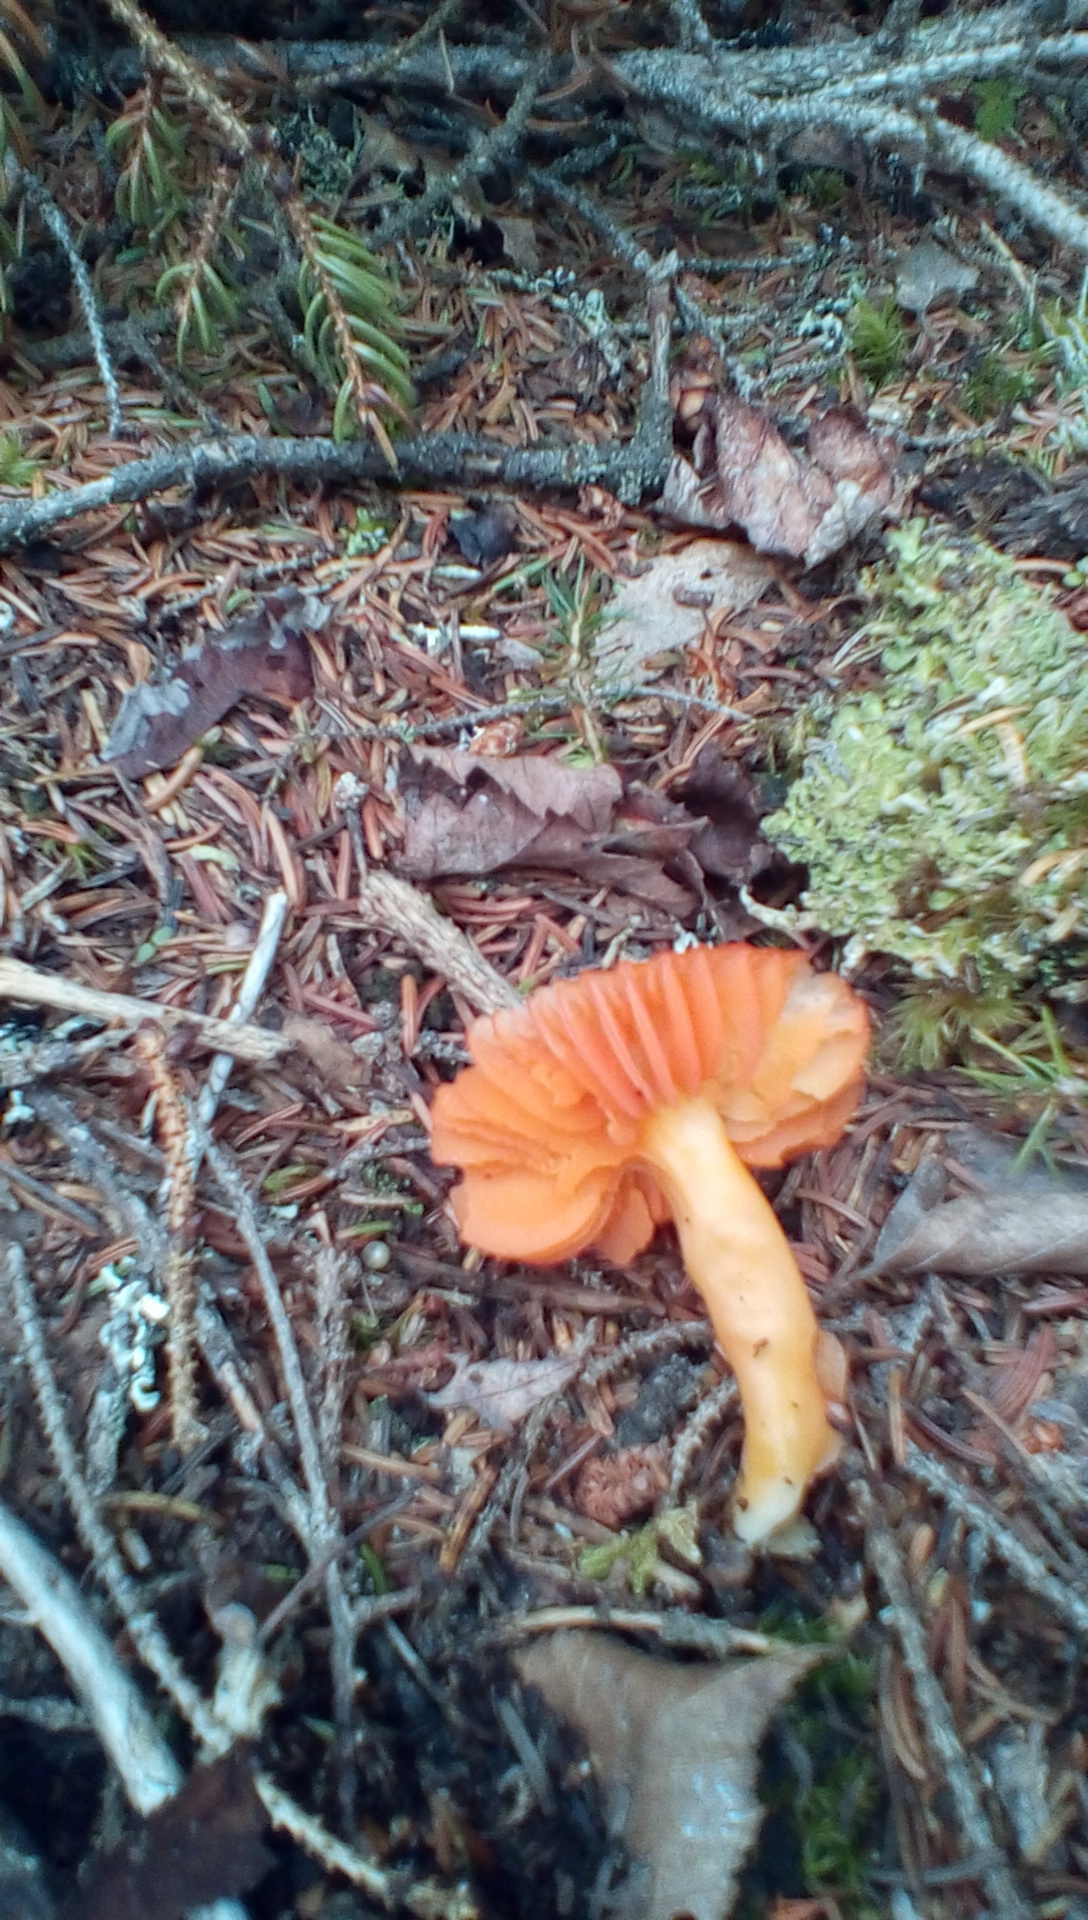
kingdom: Fungi
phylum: Basidiomycota
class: Agaricomycetes
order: Agaricales
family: Hygrophoraceae
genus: Humidicutis
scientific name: Humidicutis marginata
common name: Orange gilled waxcap
